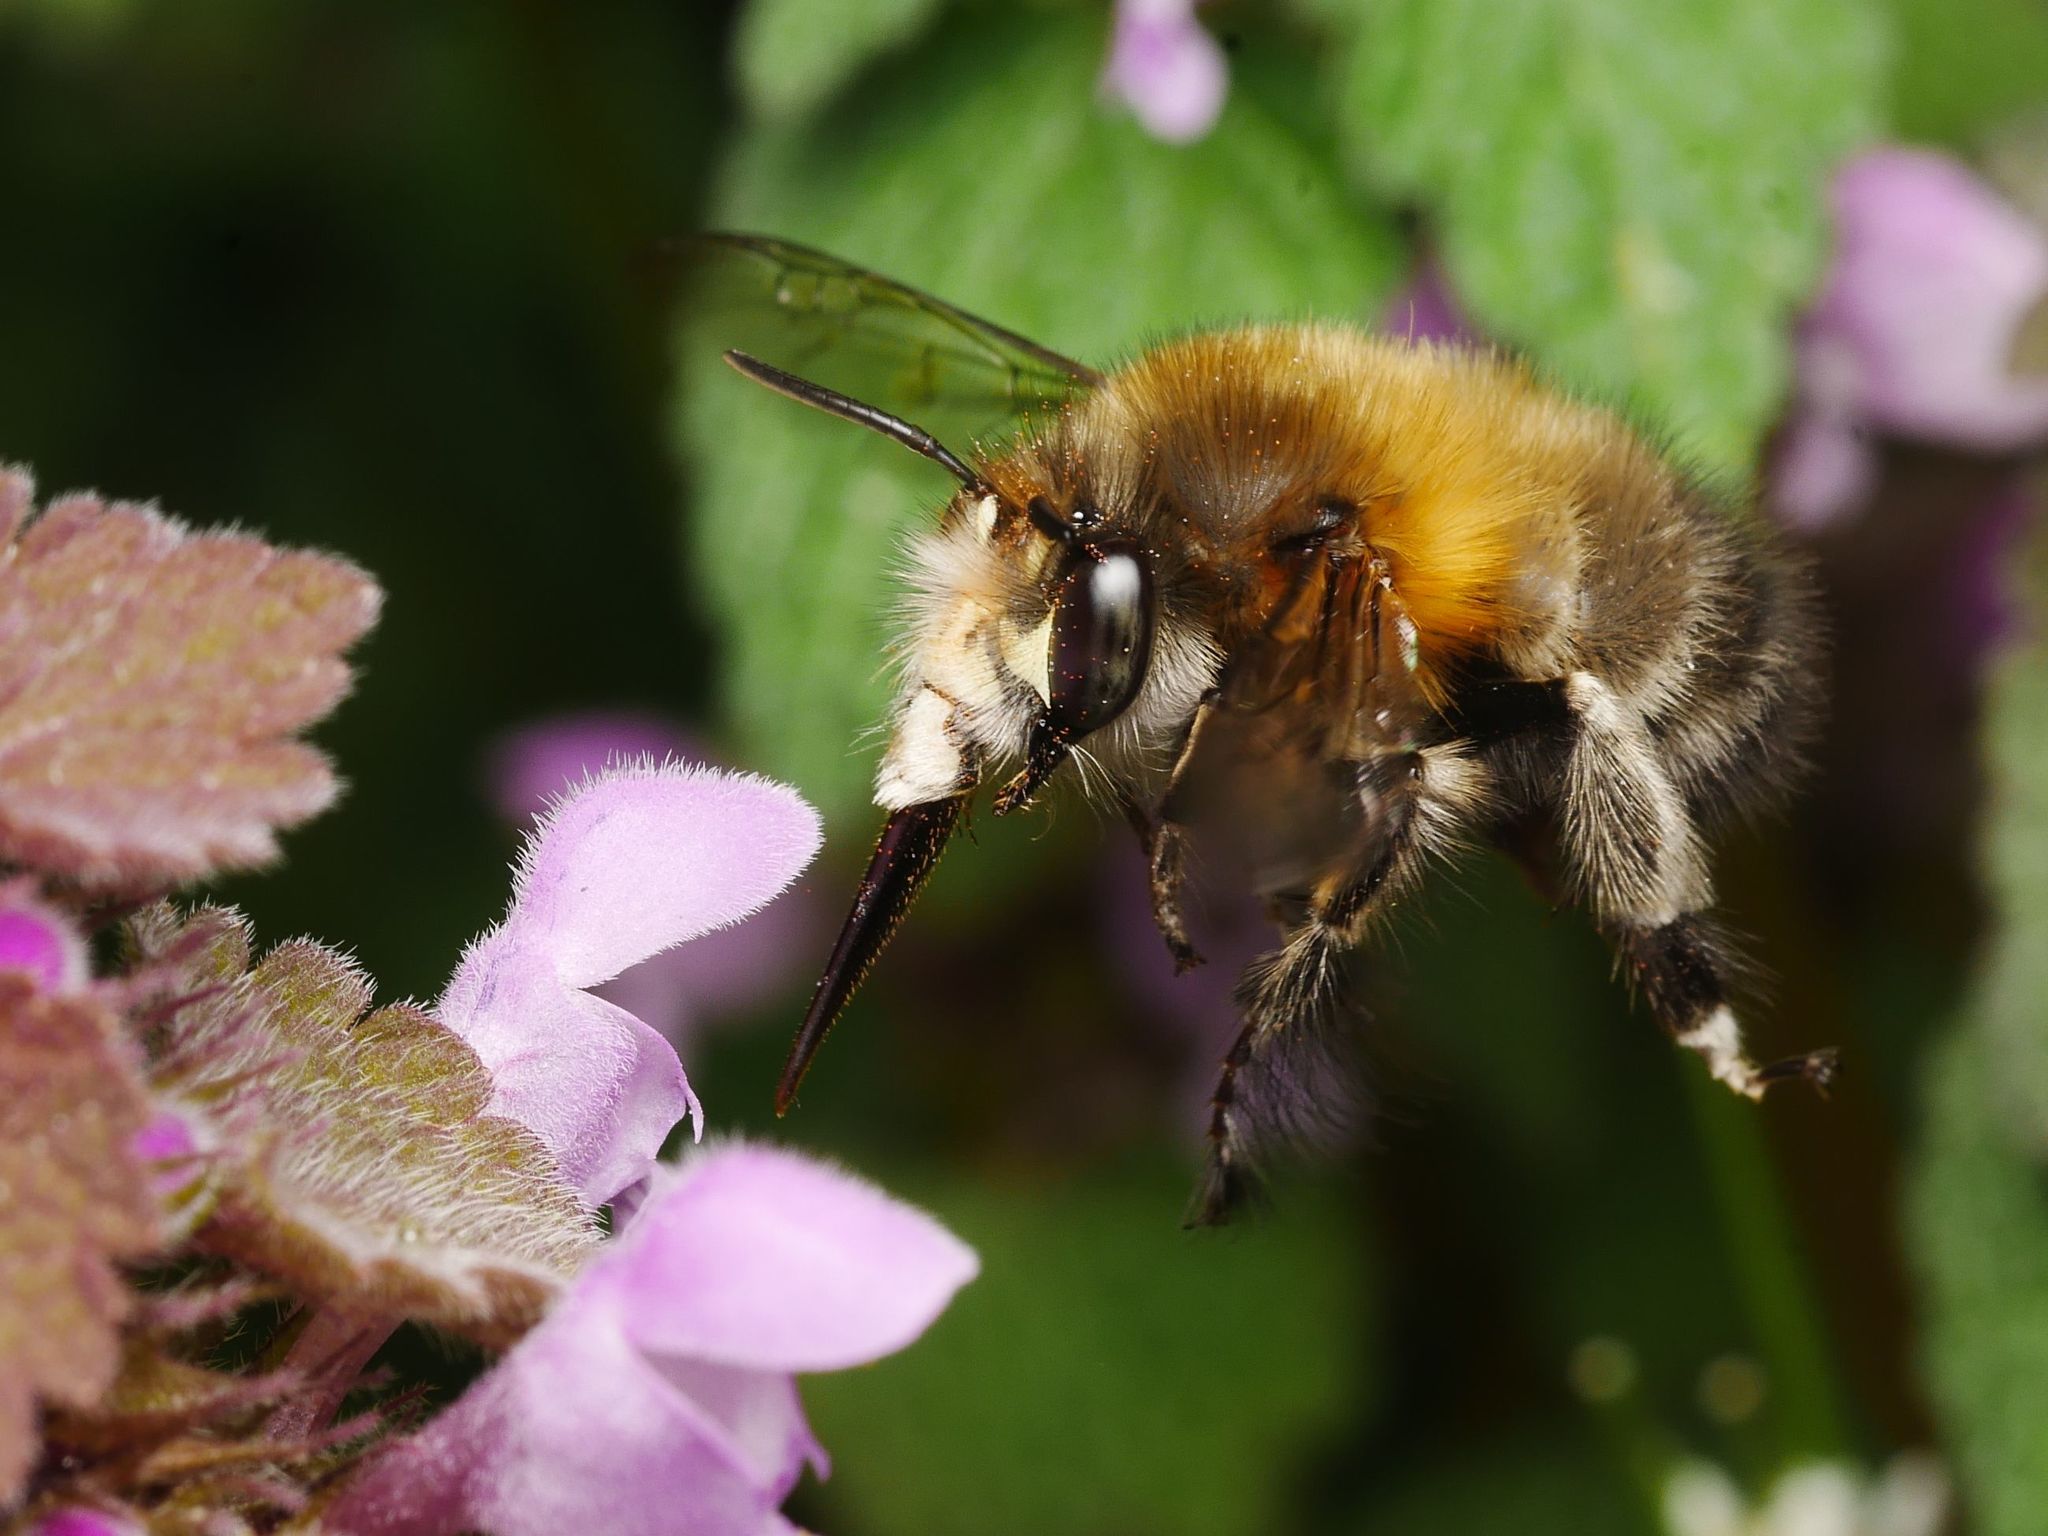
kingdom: Animalia
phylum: Arthropoda
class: Insecta
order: Hymenoptera
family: Apidae
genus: Anthophora
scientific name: Anthophora plumipes
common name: Hairy-footed flower bee
